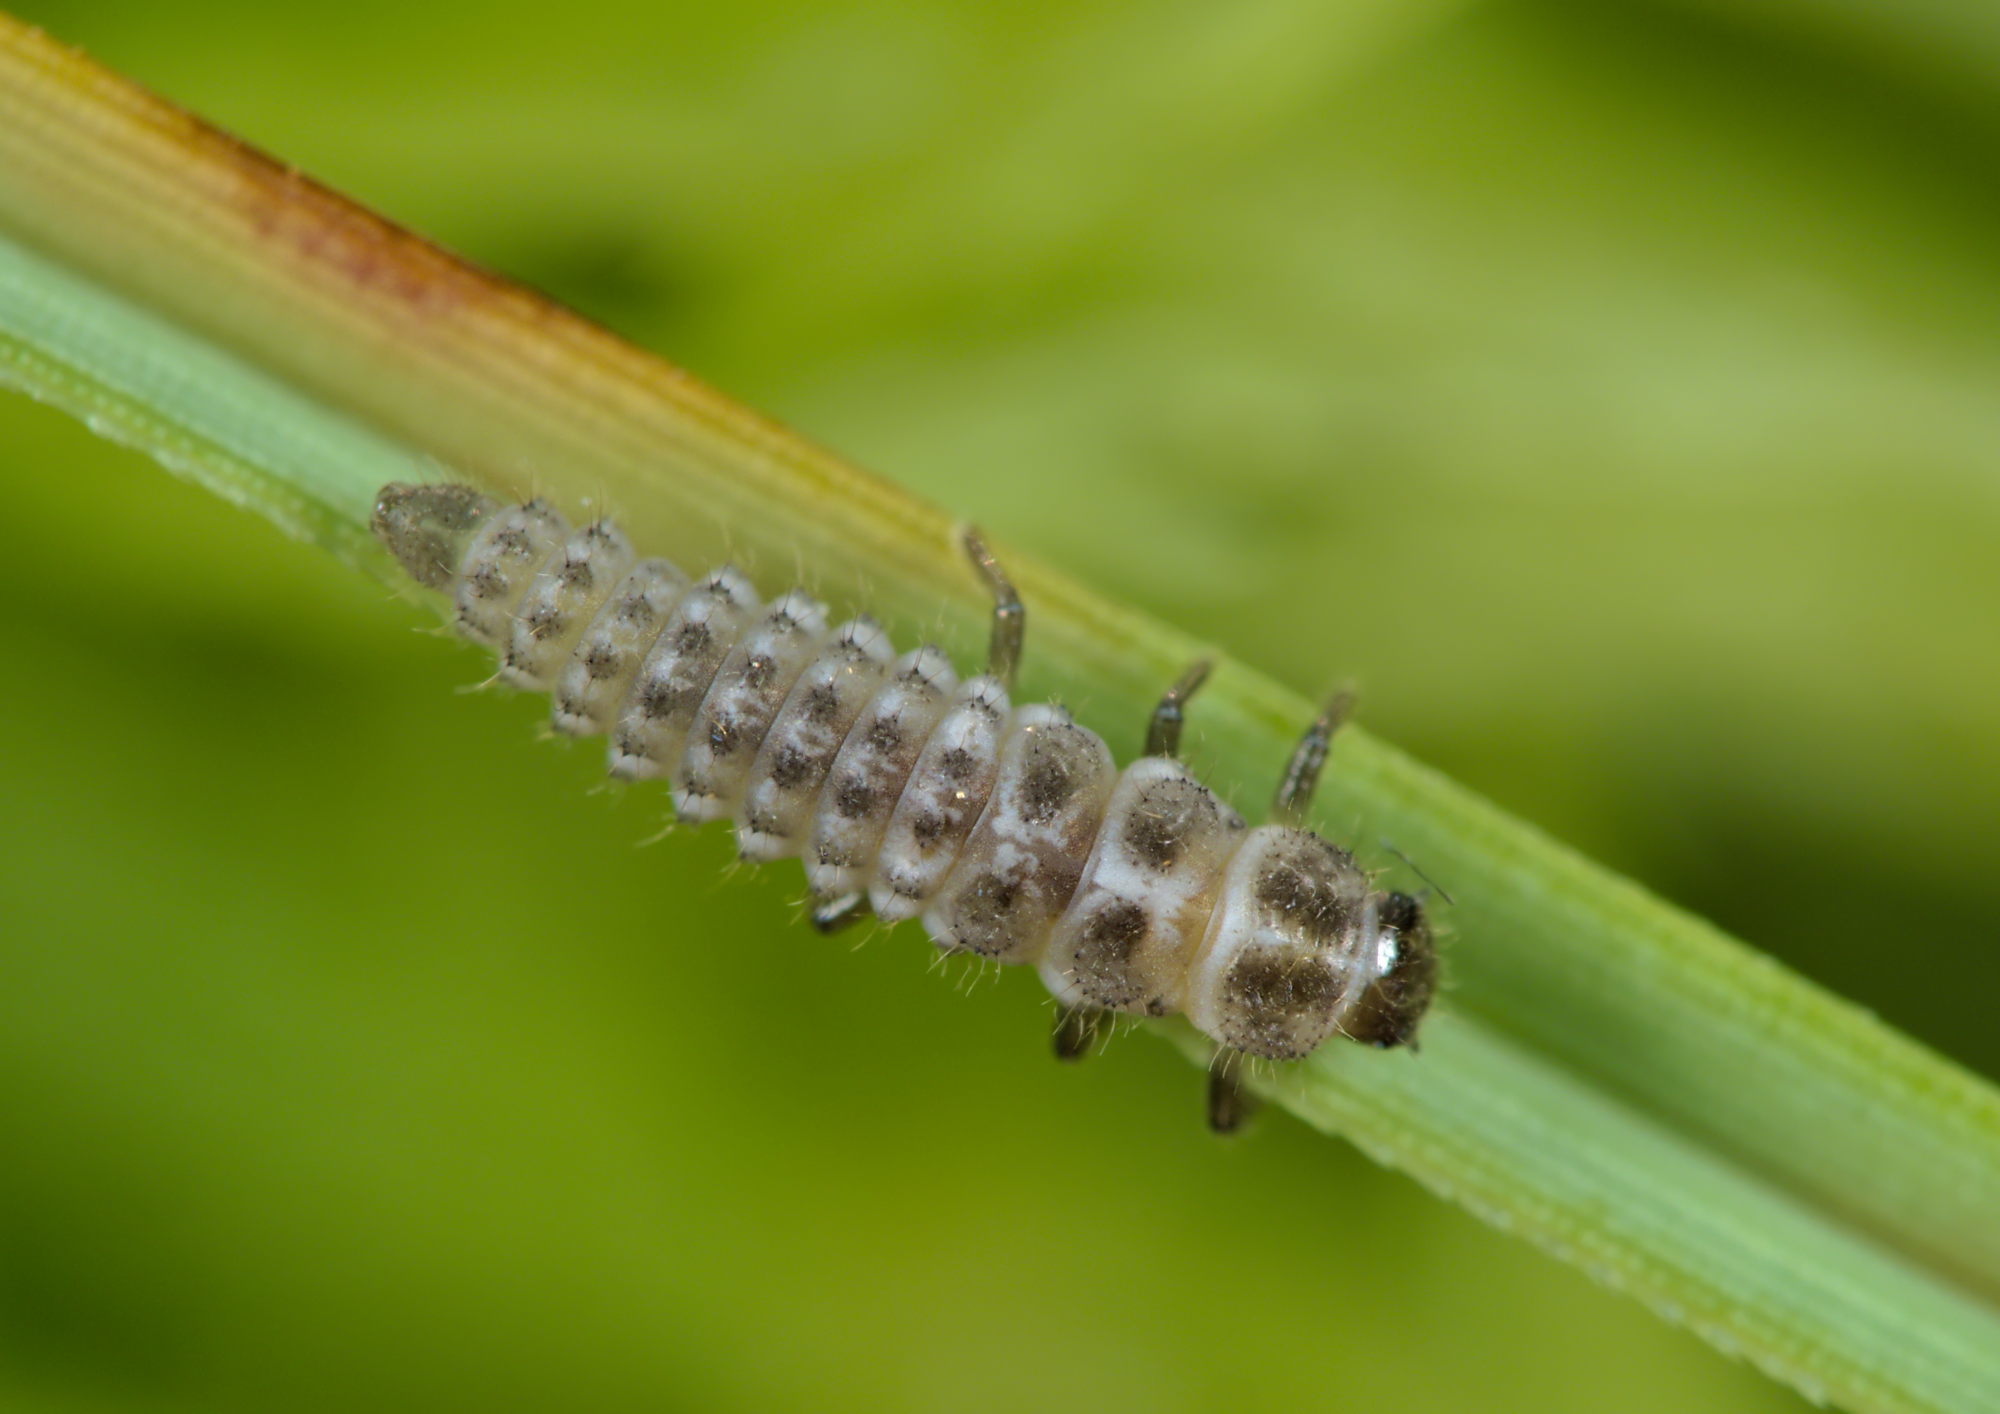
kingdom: Animalia
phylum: Arthropoda
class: Insecta
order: Coleoptera
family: Coccinellidae
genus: Anisosticta
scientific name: Anisosticta novemdecimpunctata
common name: Water ladybird
